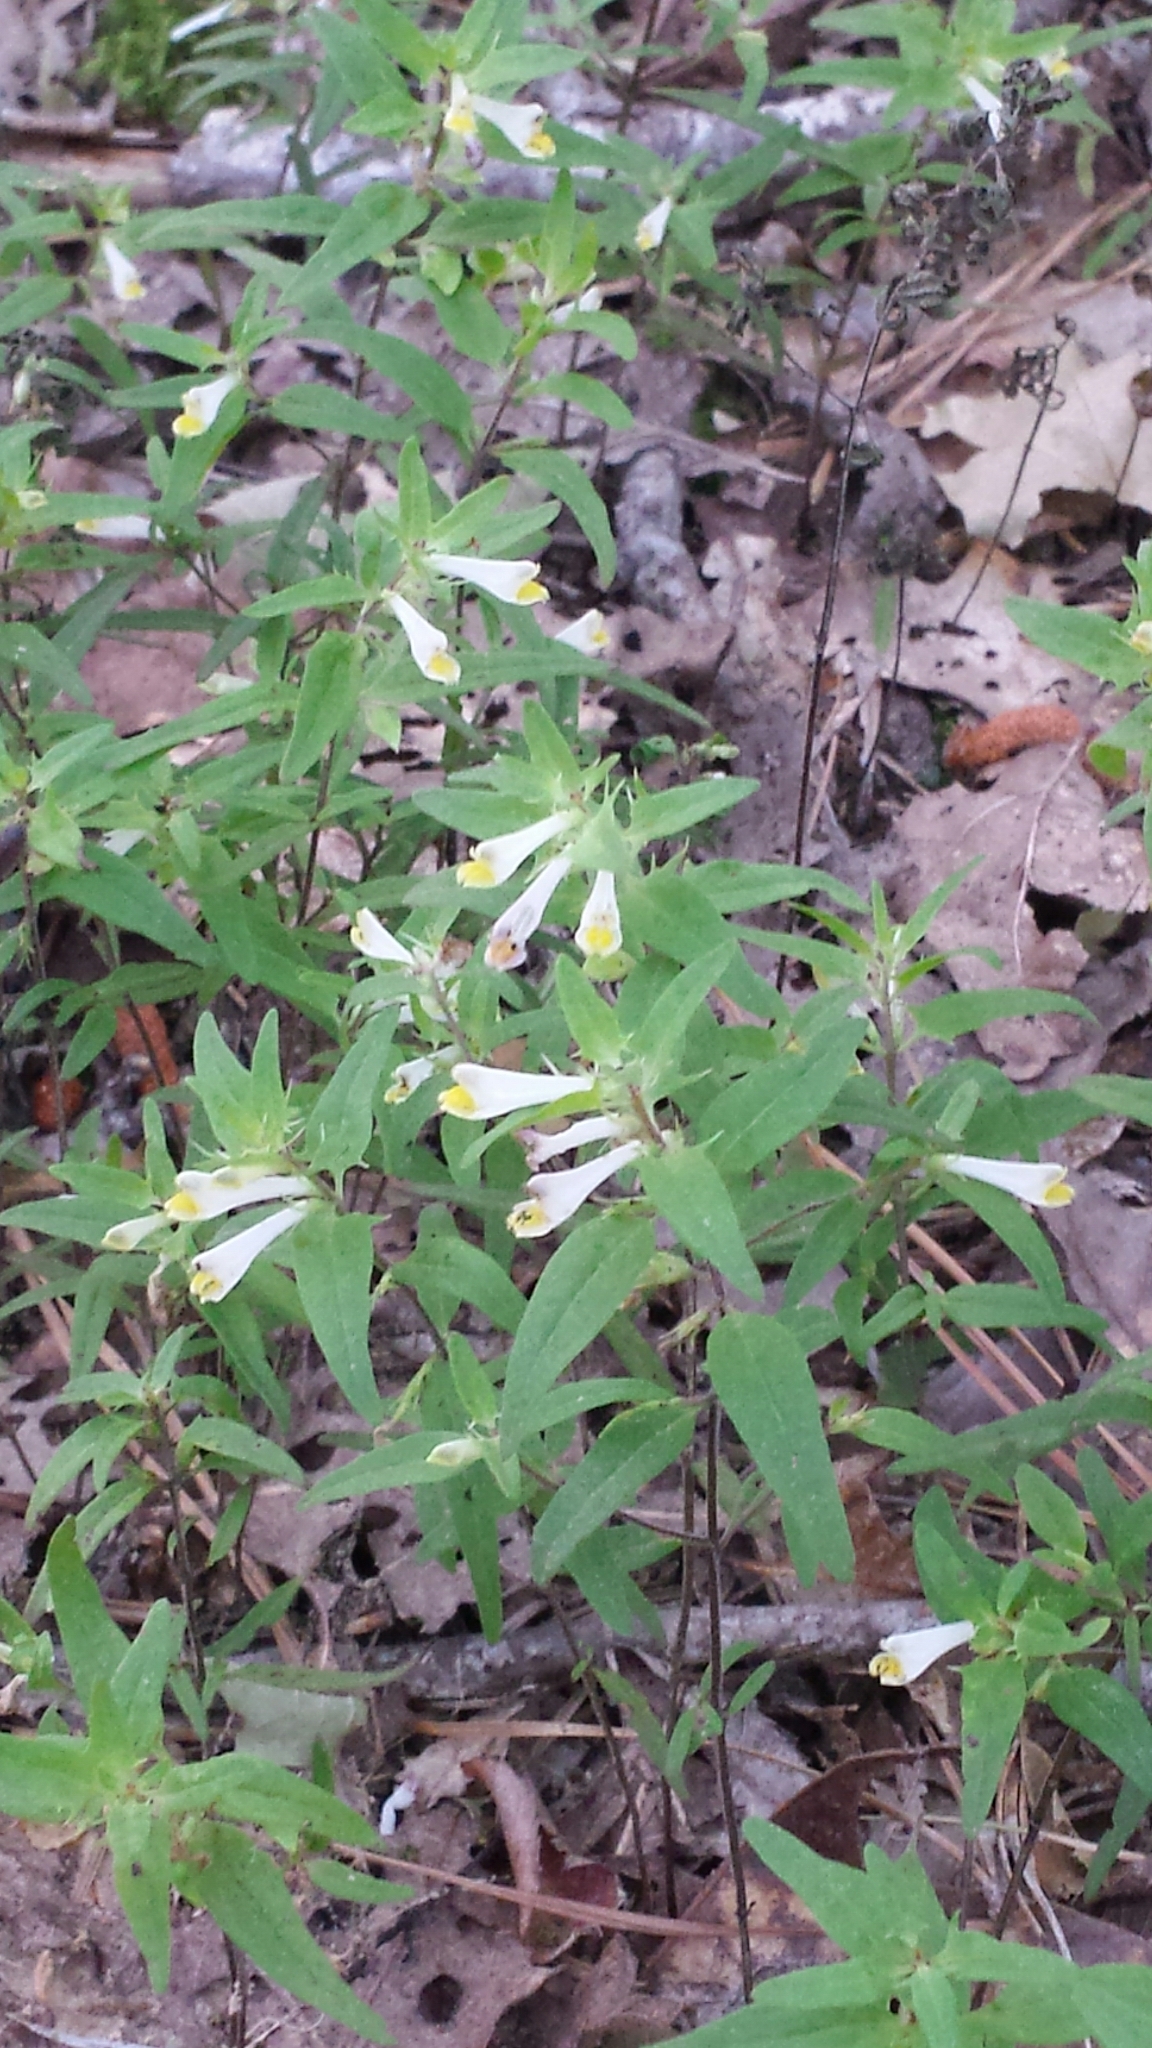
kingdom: Plantae
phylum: Tracheophyta
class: Magnoliopsida
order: Lamiales
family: Orobanchaceae
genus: Melampyrum
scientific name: Melampyrum lineare
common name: American cow-wheat
